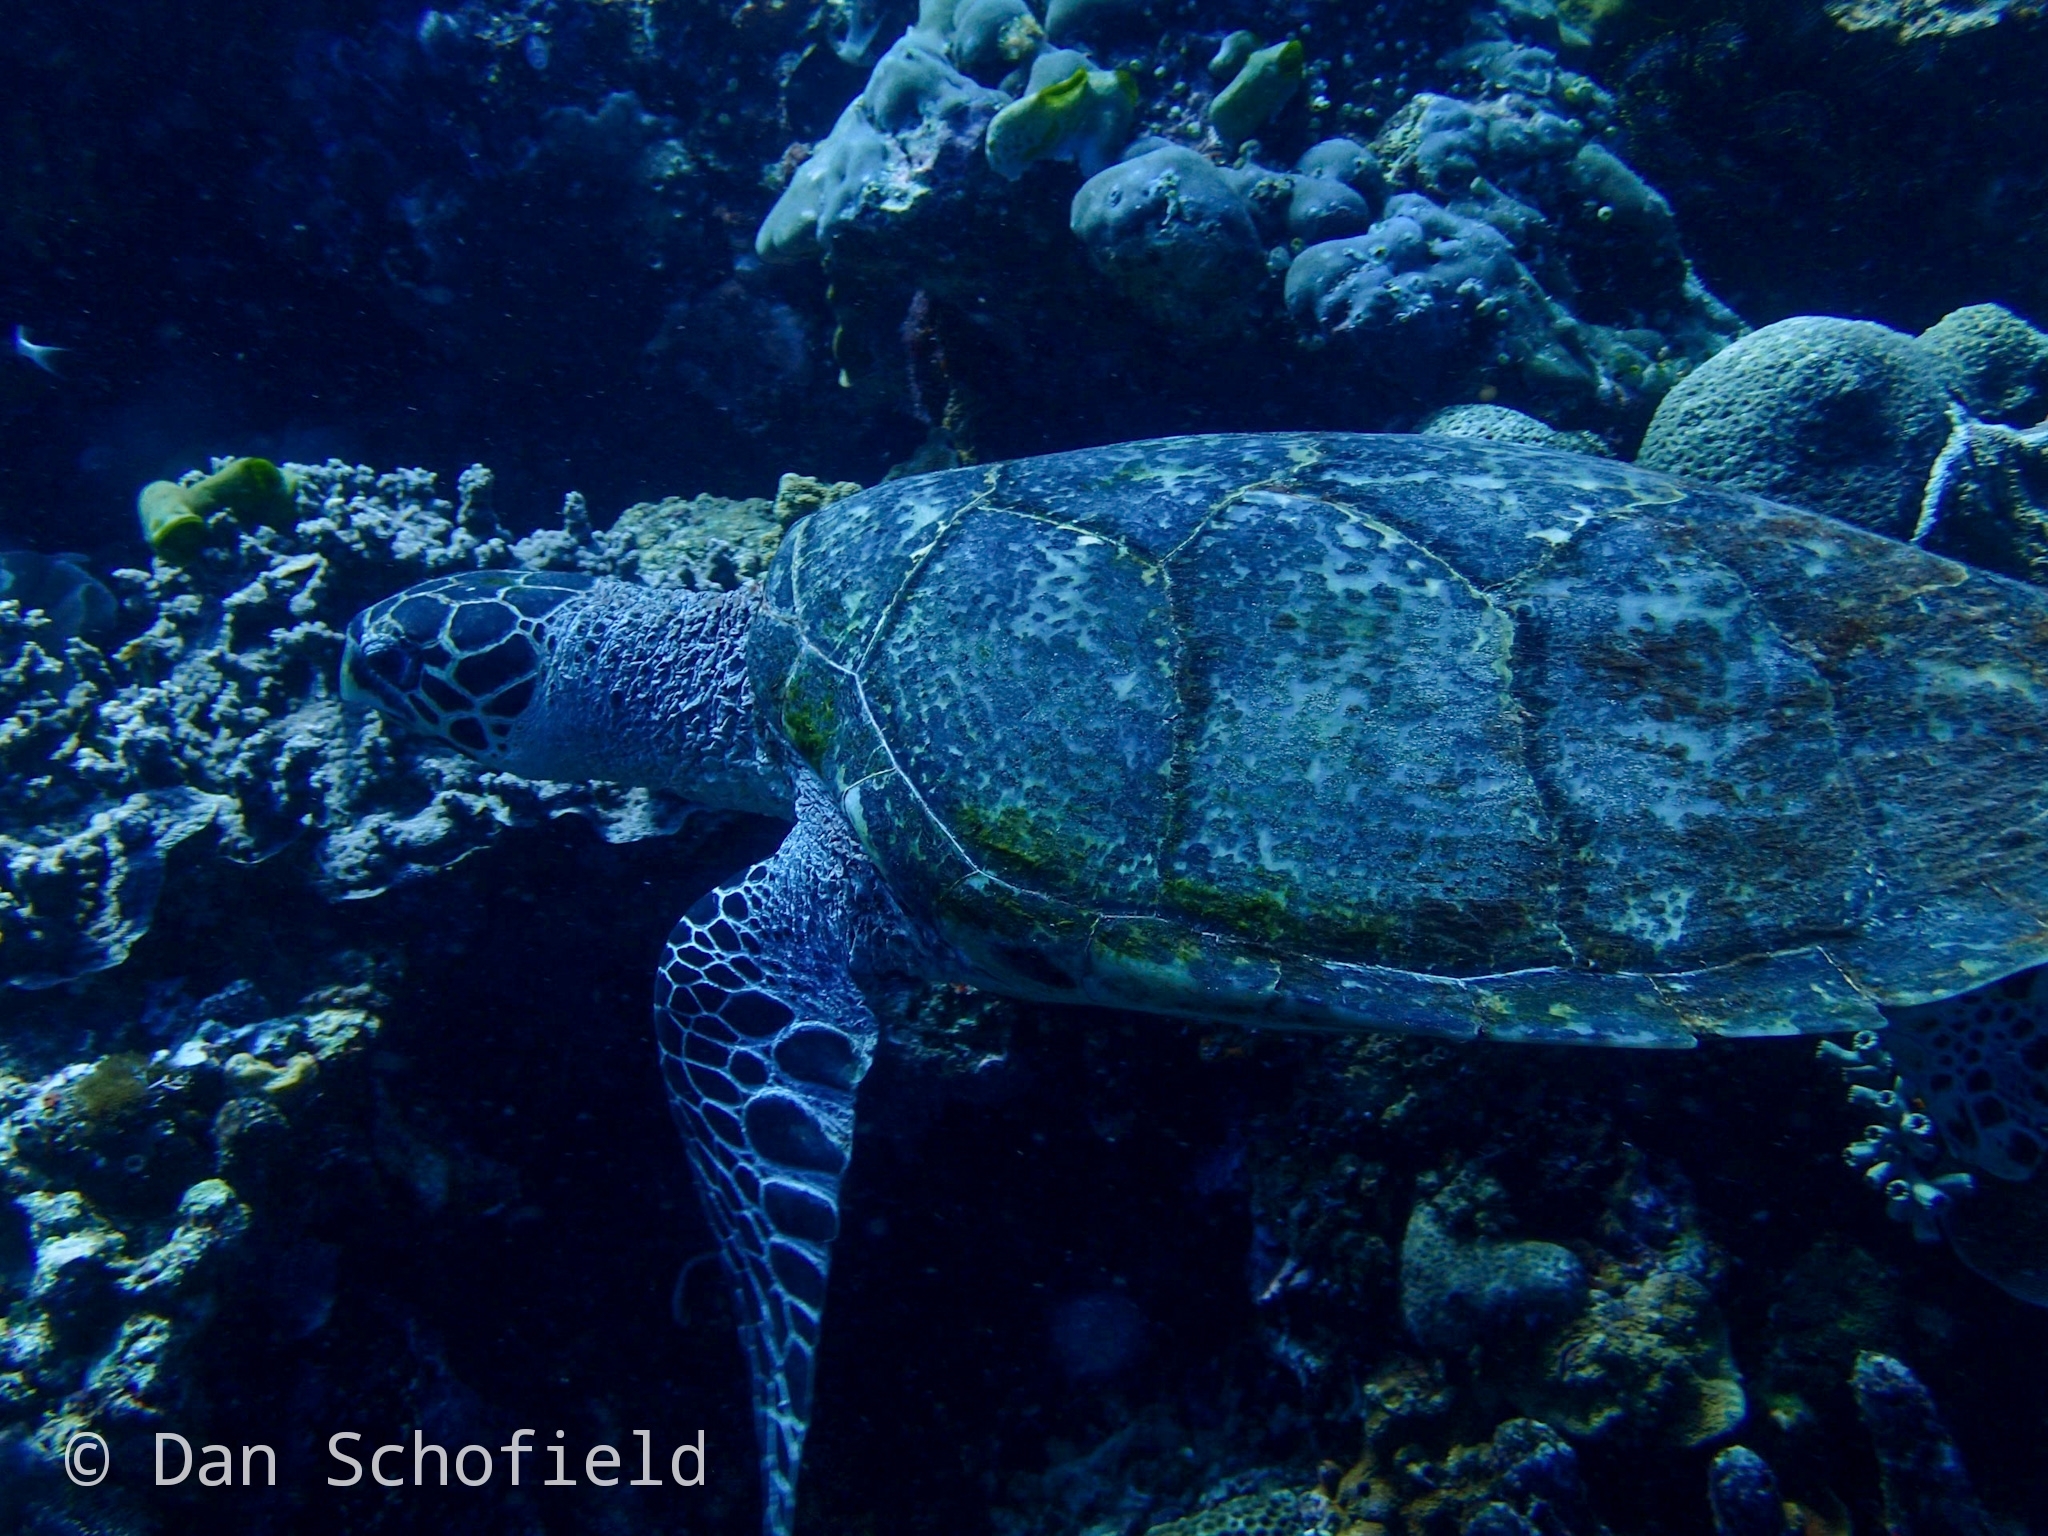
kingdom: Animalia
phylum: Chordata
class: Testudines
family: Cheloniidae
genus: Eretmochelys
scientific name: Eretmochelys imbricata
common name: Hawksbill turtle
